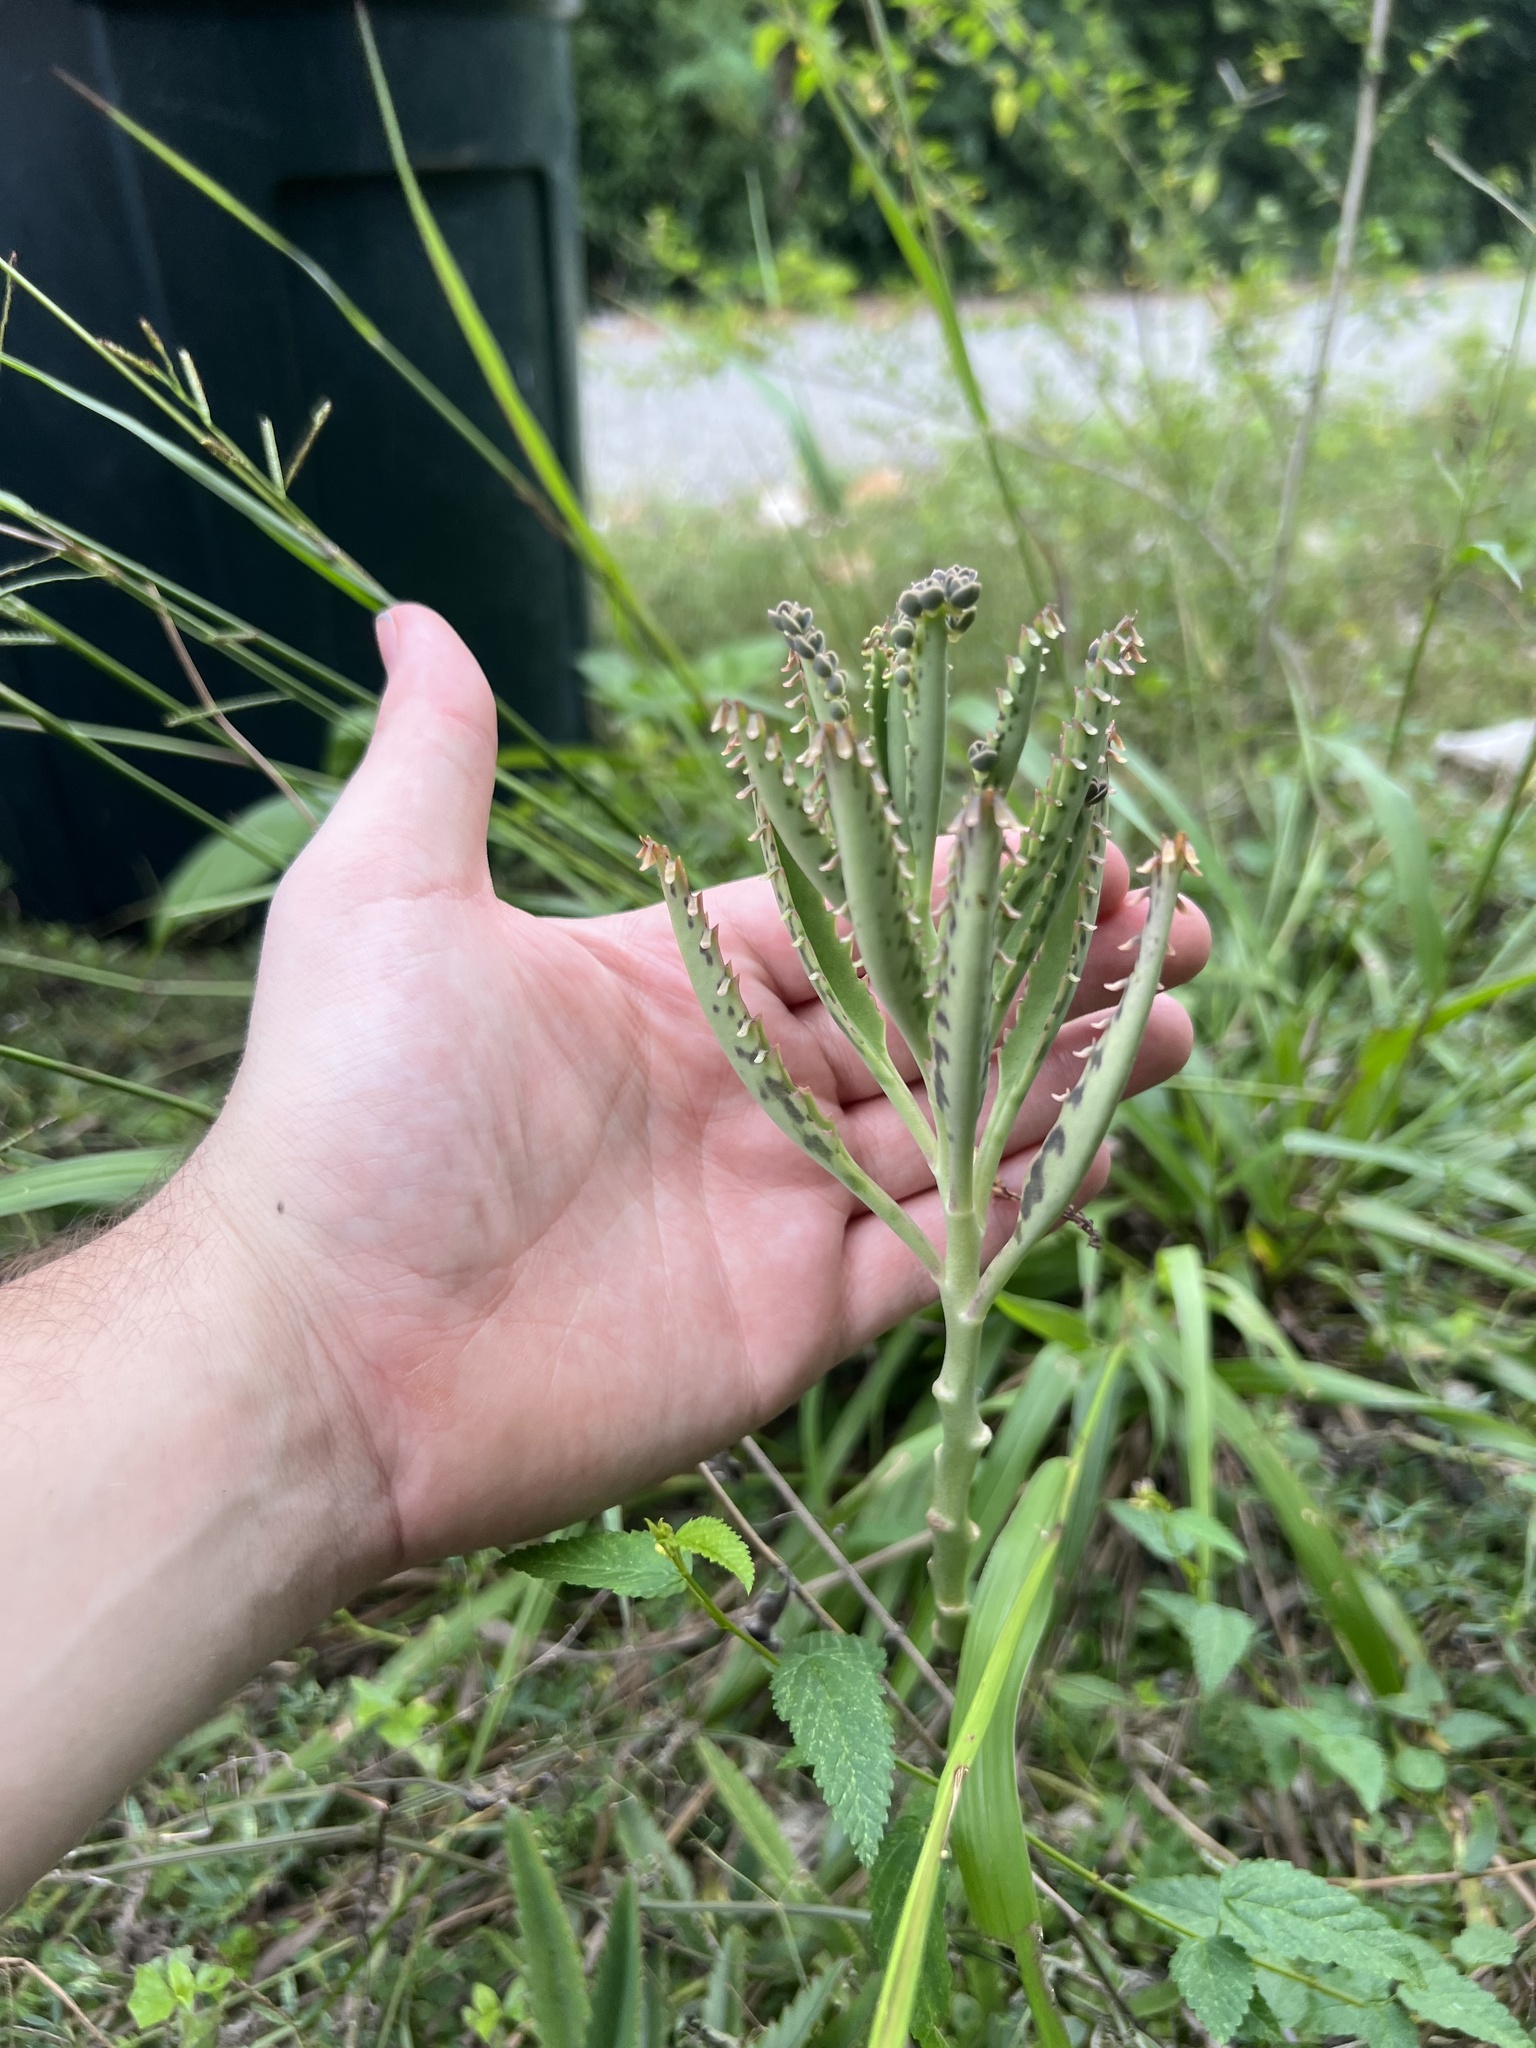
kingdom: Plantae
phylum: Tracheophyta
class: Magnoliopsida
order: Saxifragales
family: Crassulaceae
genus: Kalanchoe
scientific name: Kalanchoe houghtonii
